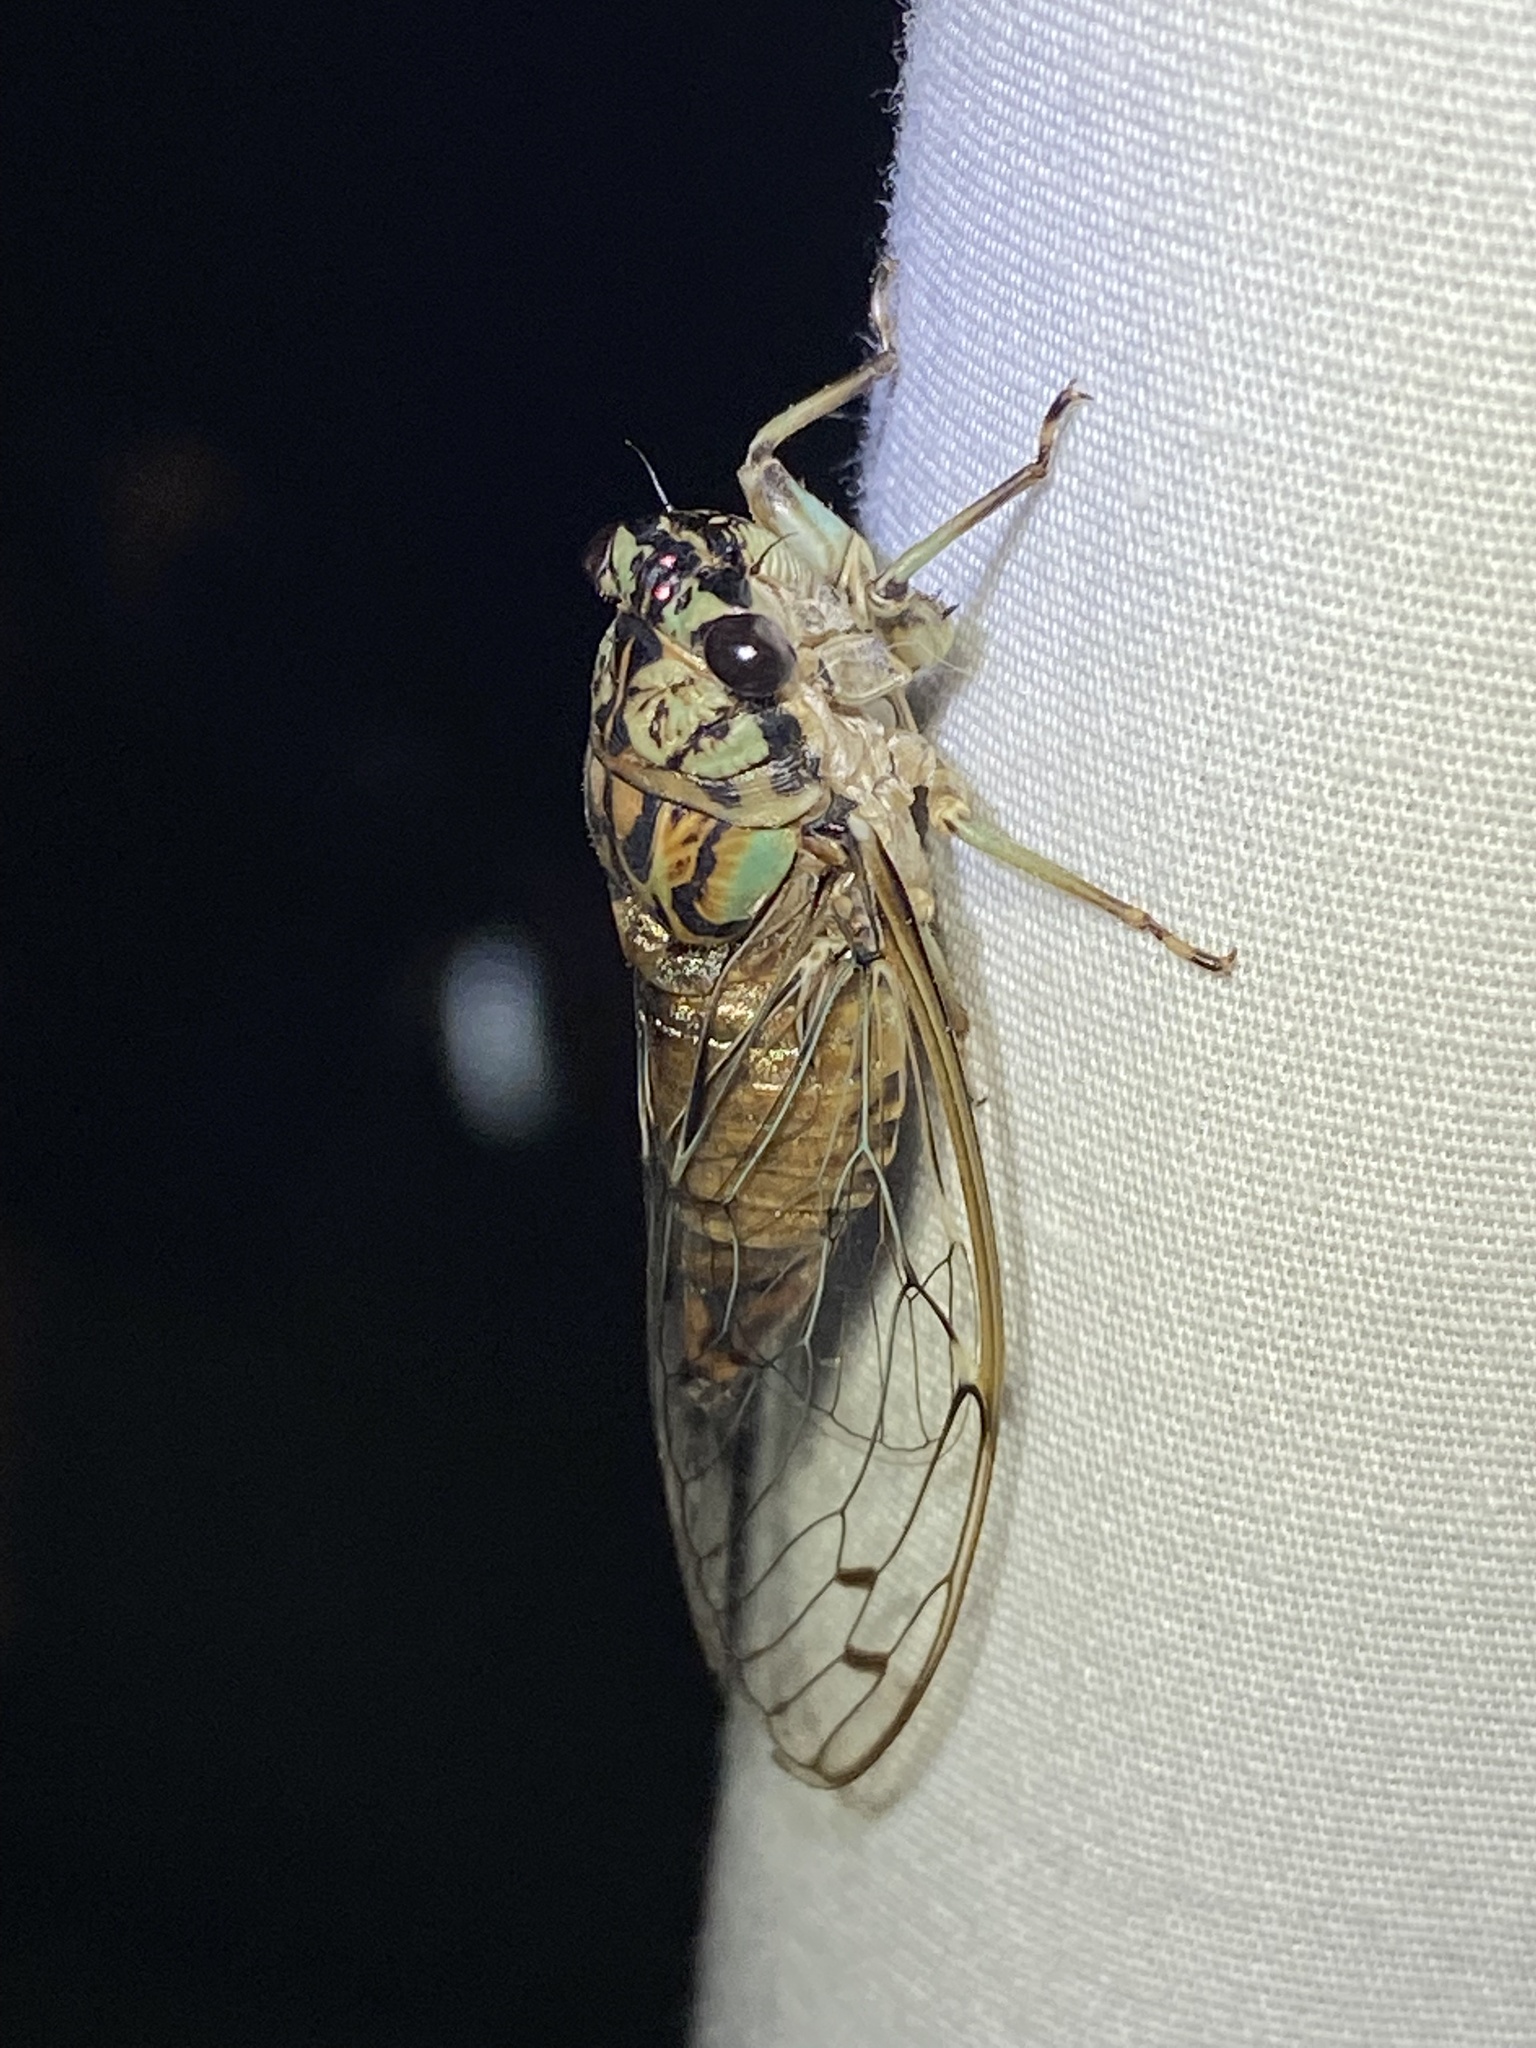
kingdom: Animalia
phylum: Arthropoda
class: Insecta
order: Hemiptera
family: Cicadidae
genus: Neocicada
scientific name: Neocicada hieroglyphica
